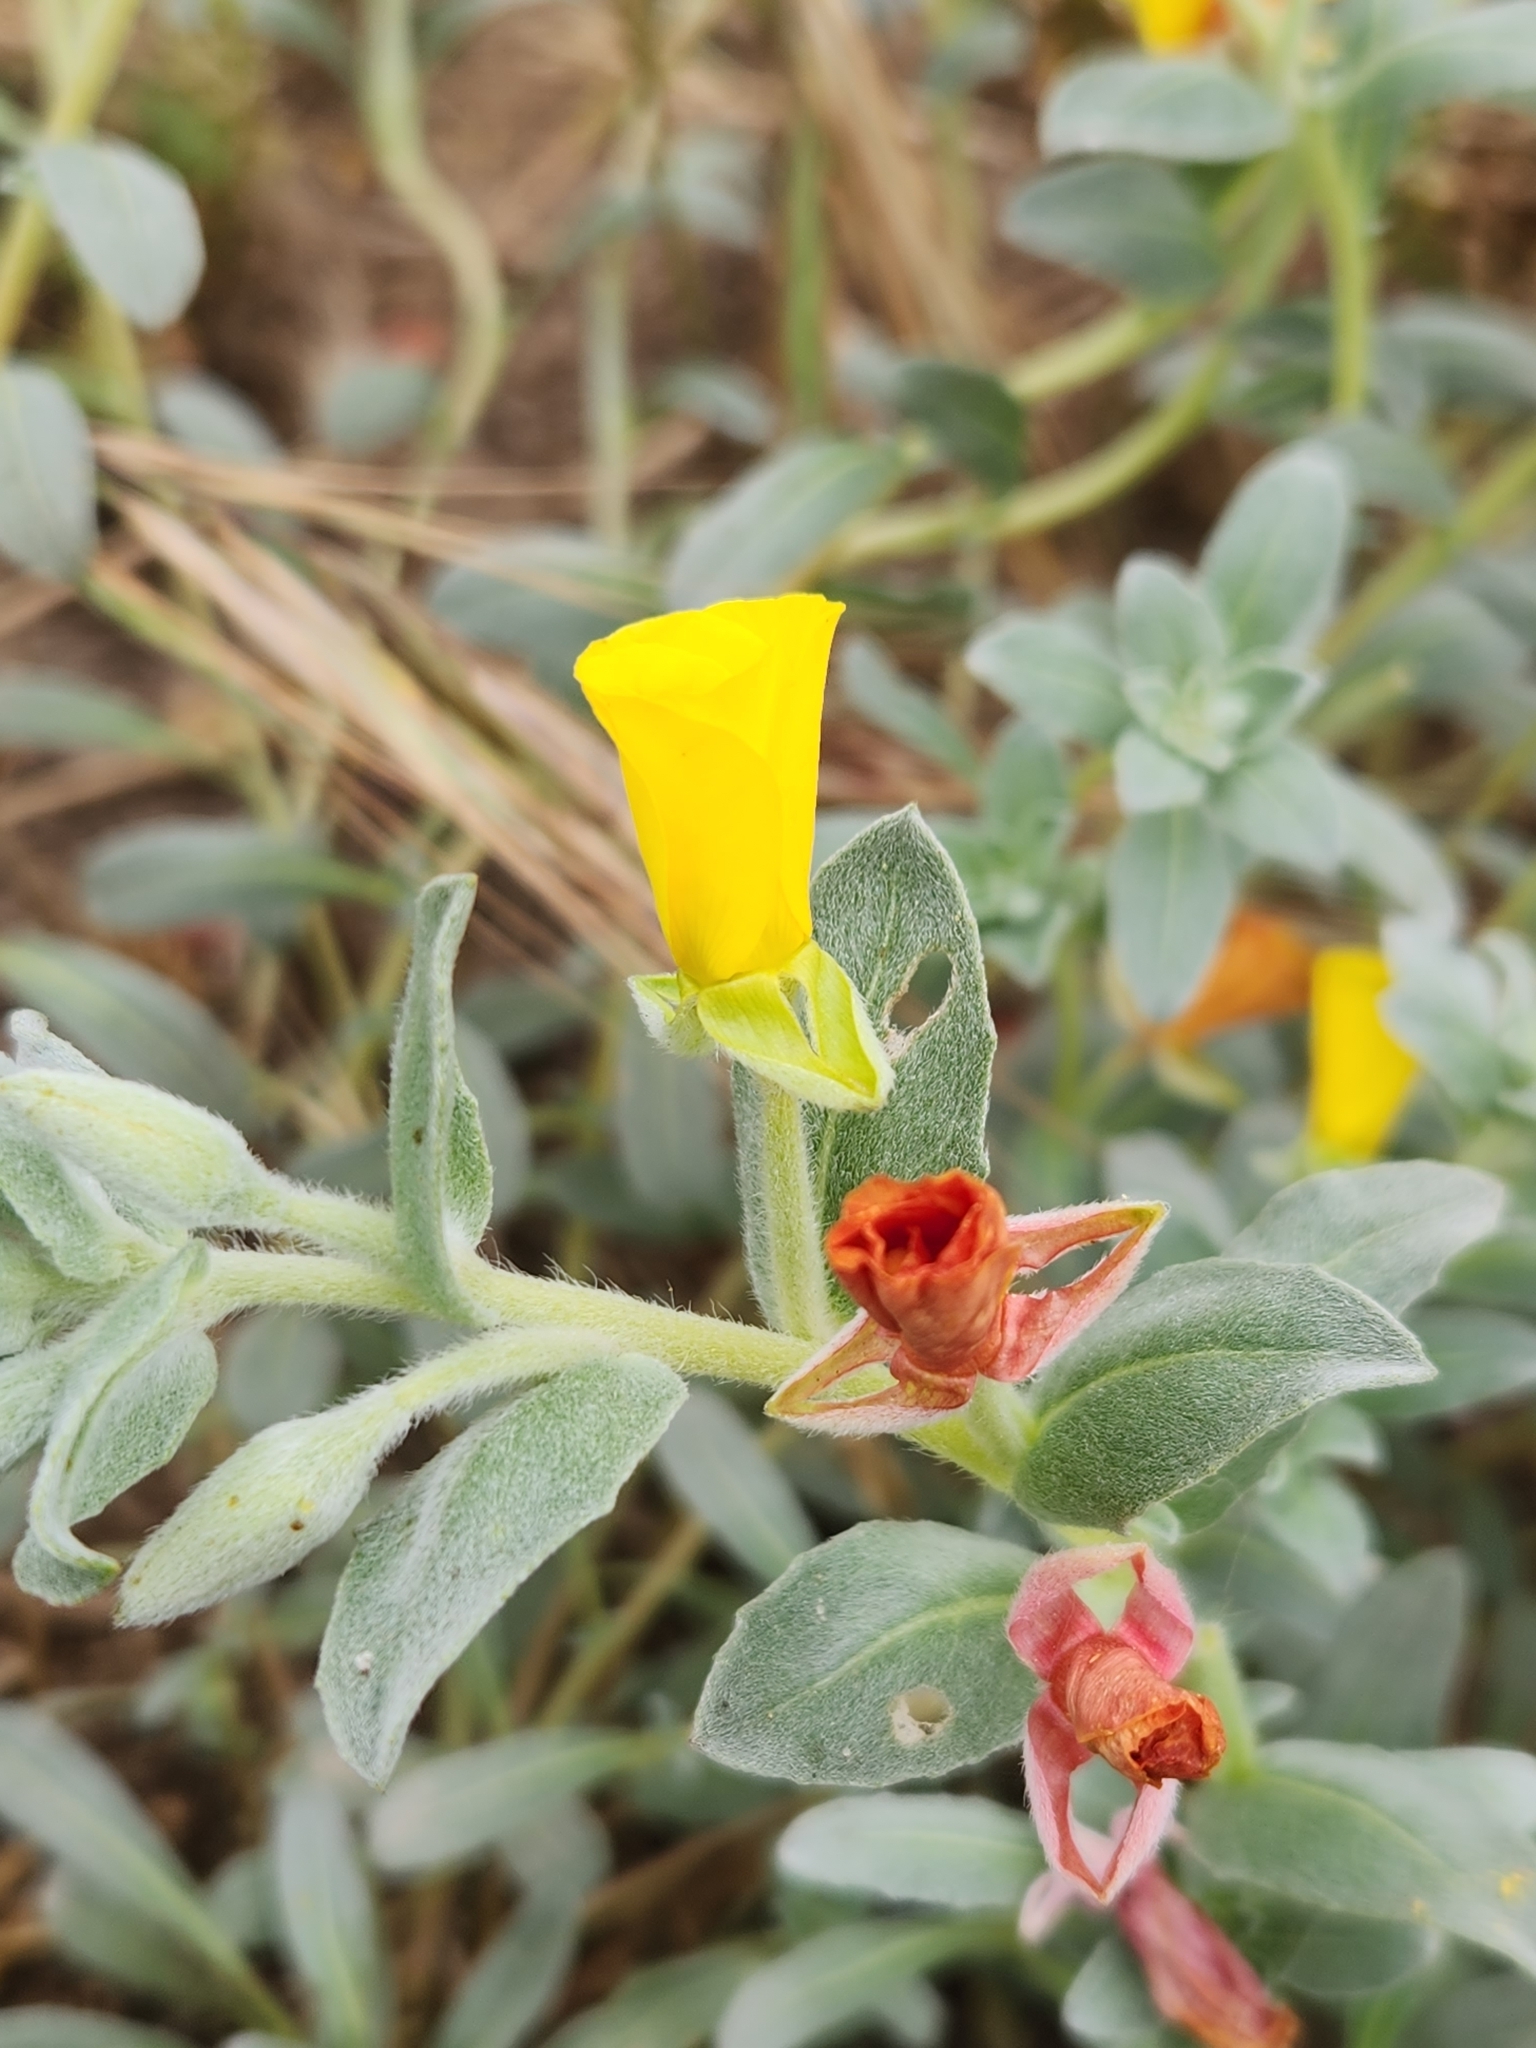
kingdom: Plantae
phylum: Tracheophyta
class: Magnoliopsida
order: Myrtales
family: Onagraceae
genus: Camissoniopsis
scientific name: Camissoniopsis cheiranthifolia
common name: Beach suncup
